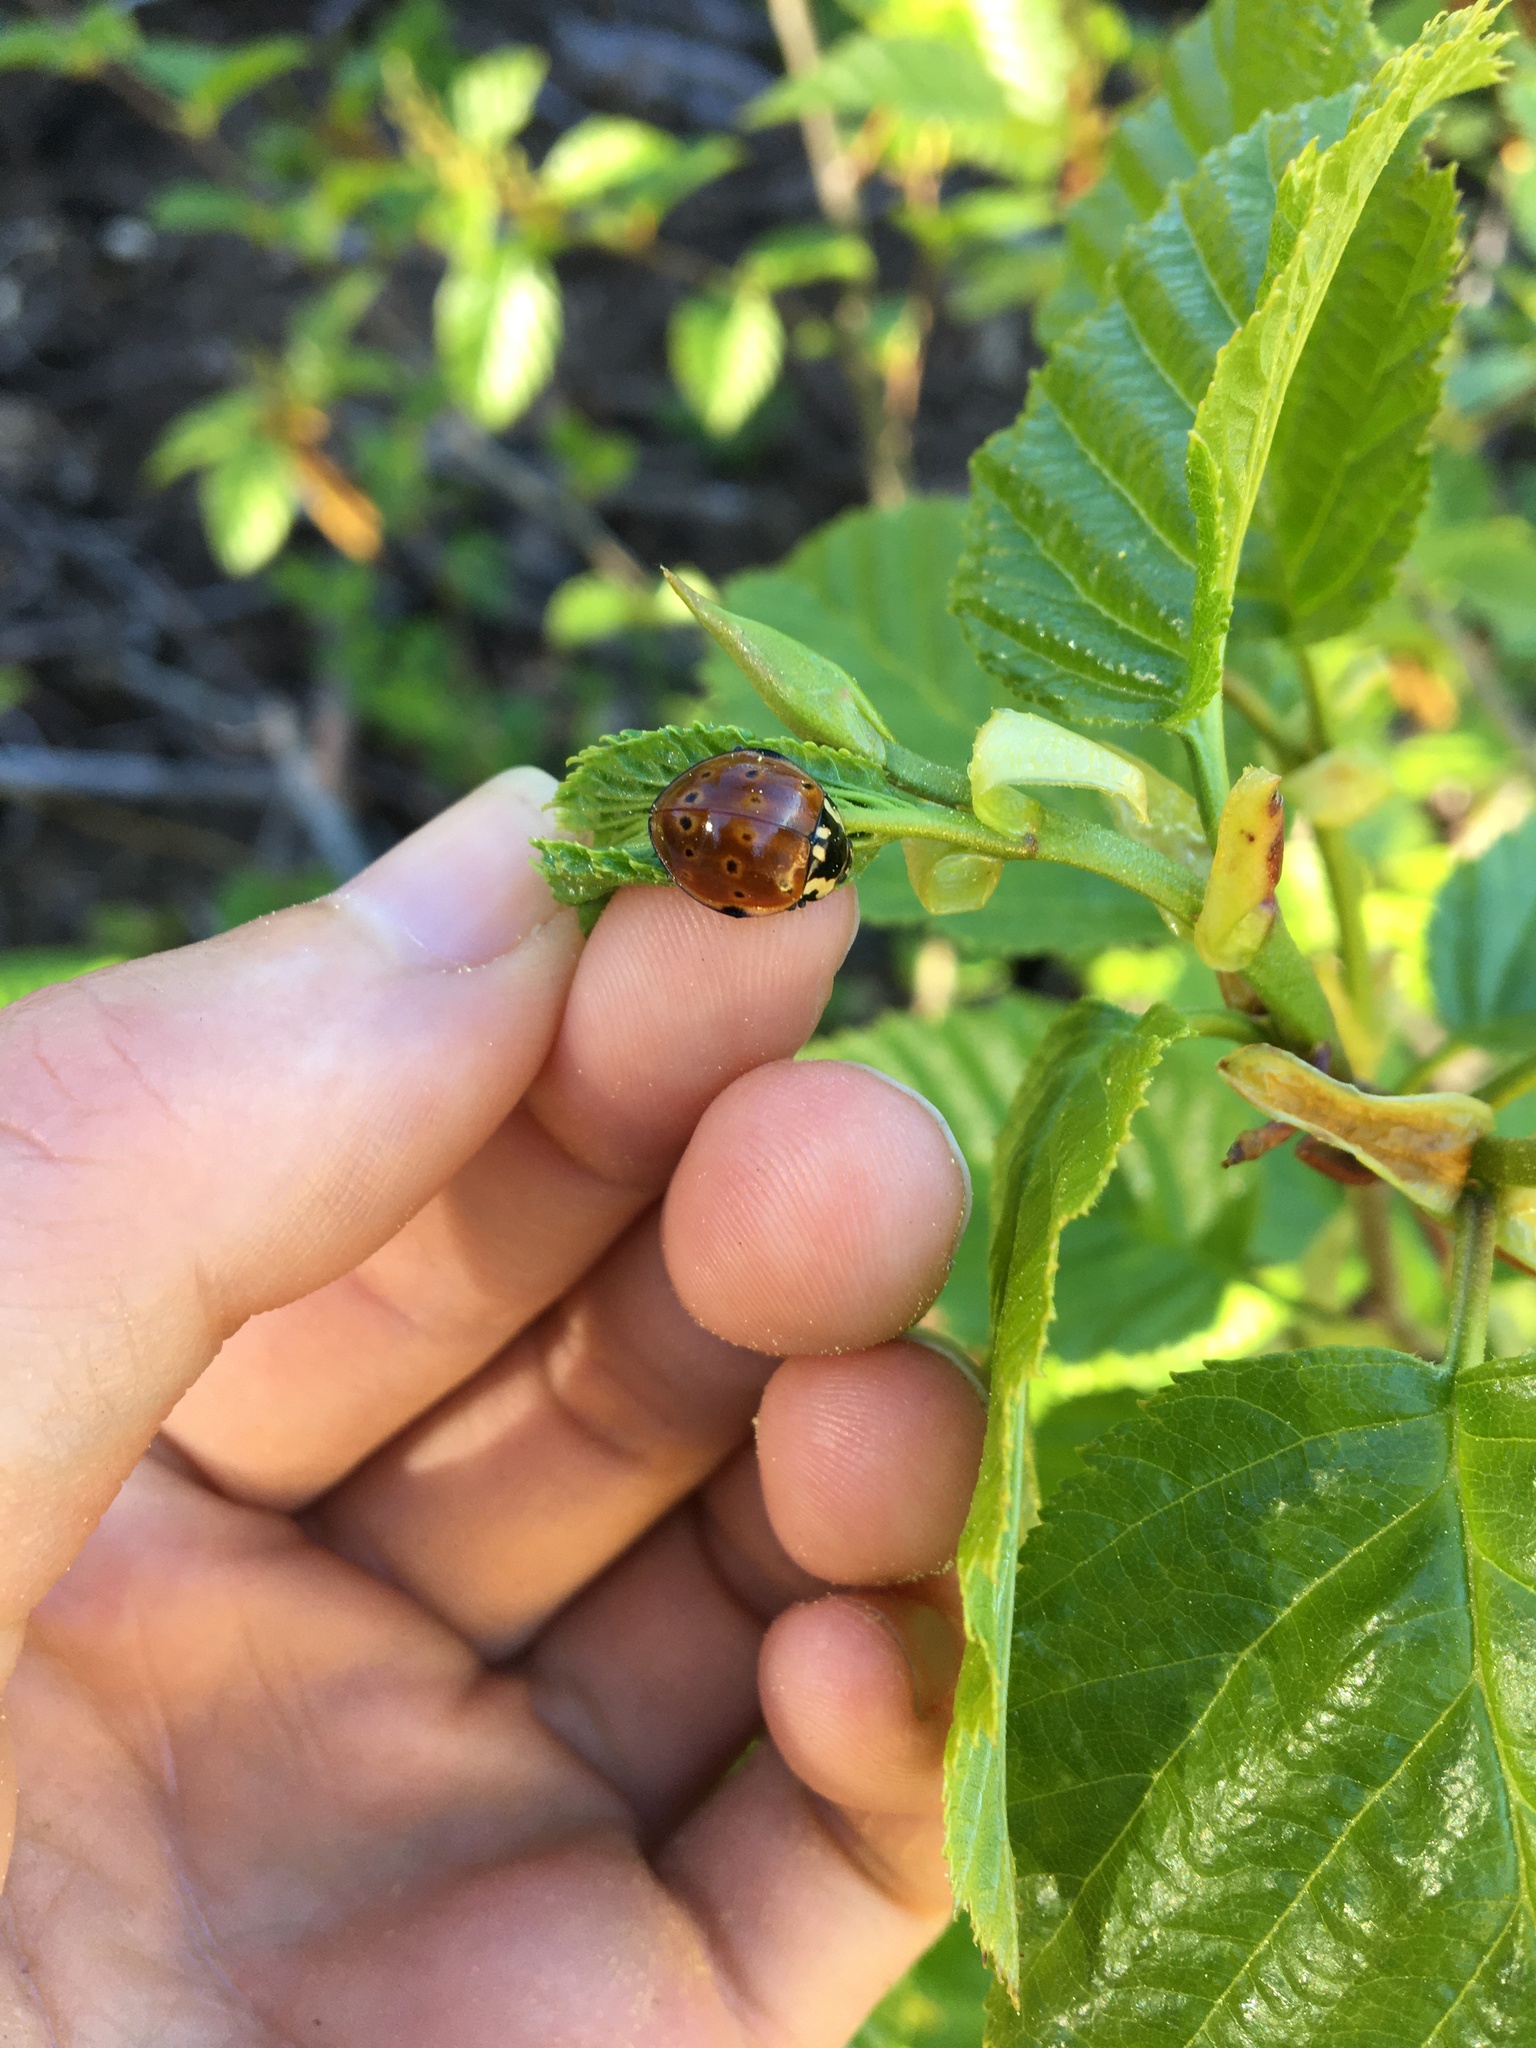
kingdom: Animalia
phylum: Arthropoda
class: Insecta
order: Coleoptera
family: Coccinellidae
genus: Anatis
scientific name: Anatis rathvoni
